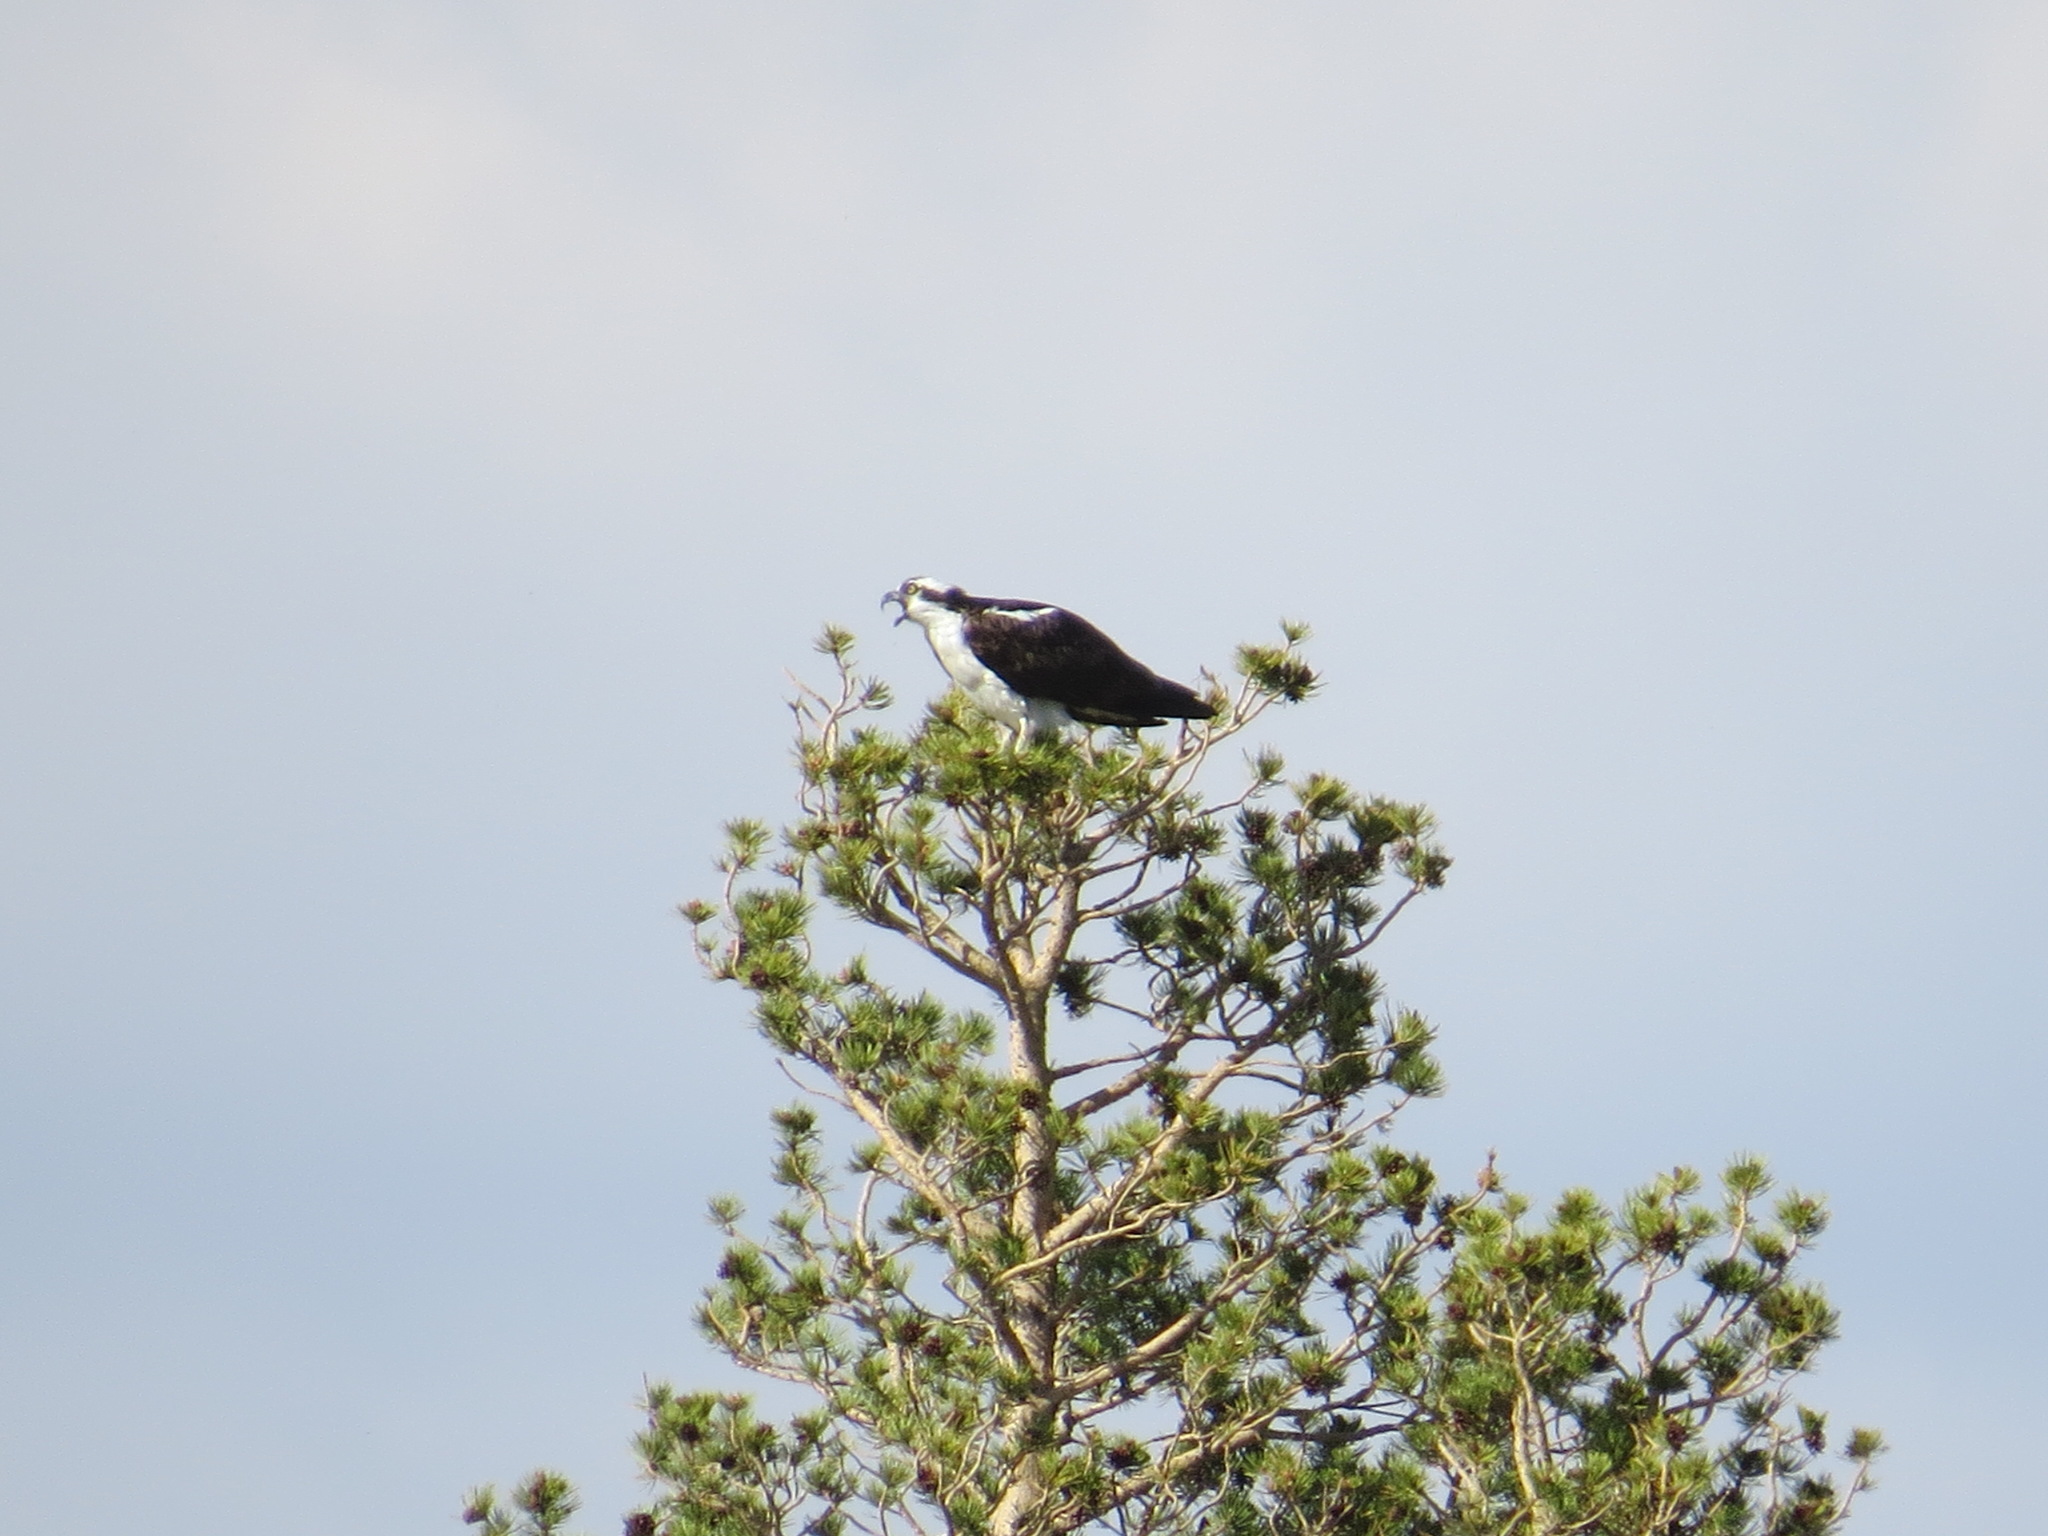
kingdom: Animalia
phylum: Chordata
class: Aves
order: Accipitriformes
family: Pandionidae
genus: Pandion
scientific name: Pandion haliaetus
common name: Osprey
